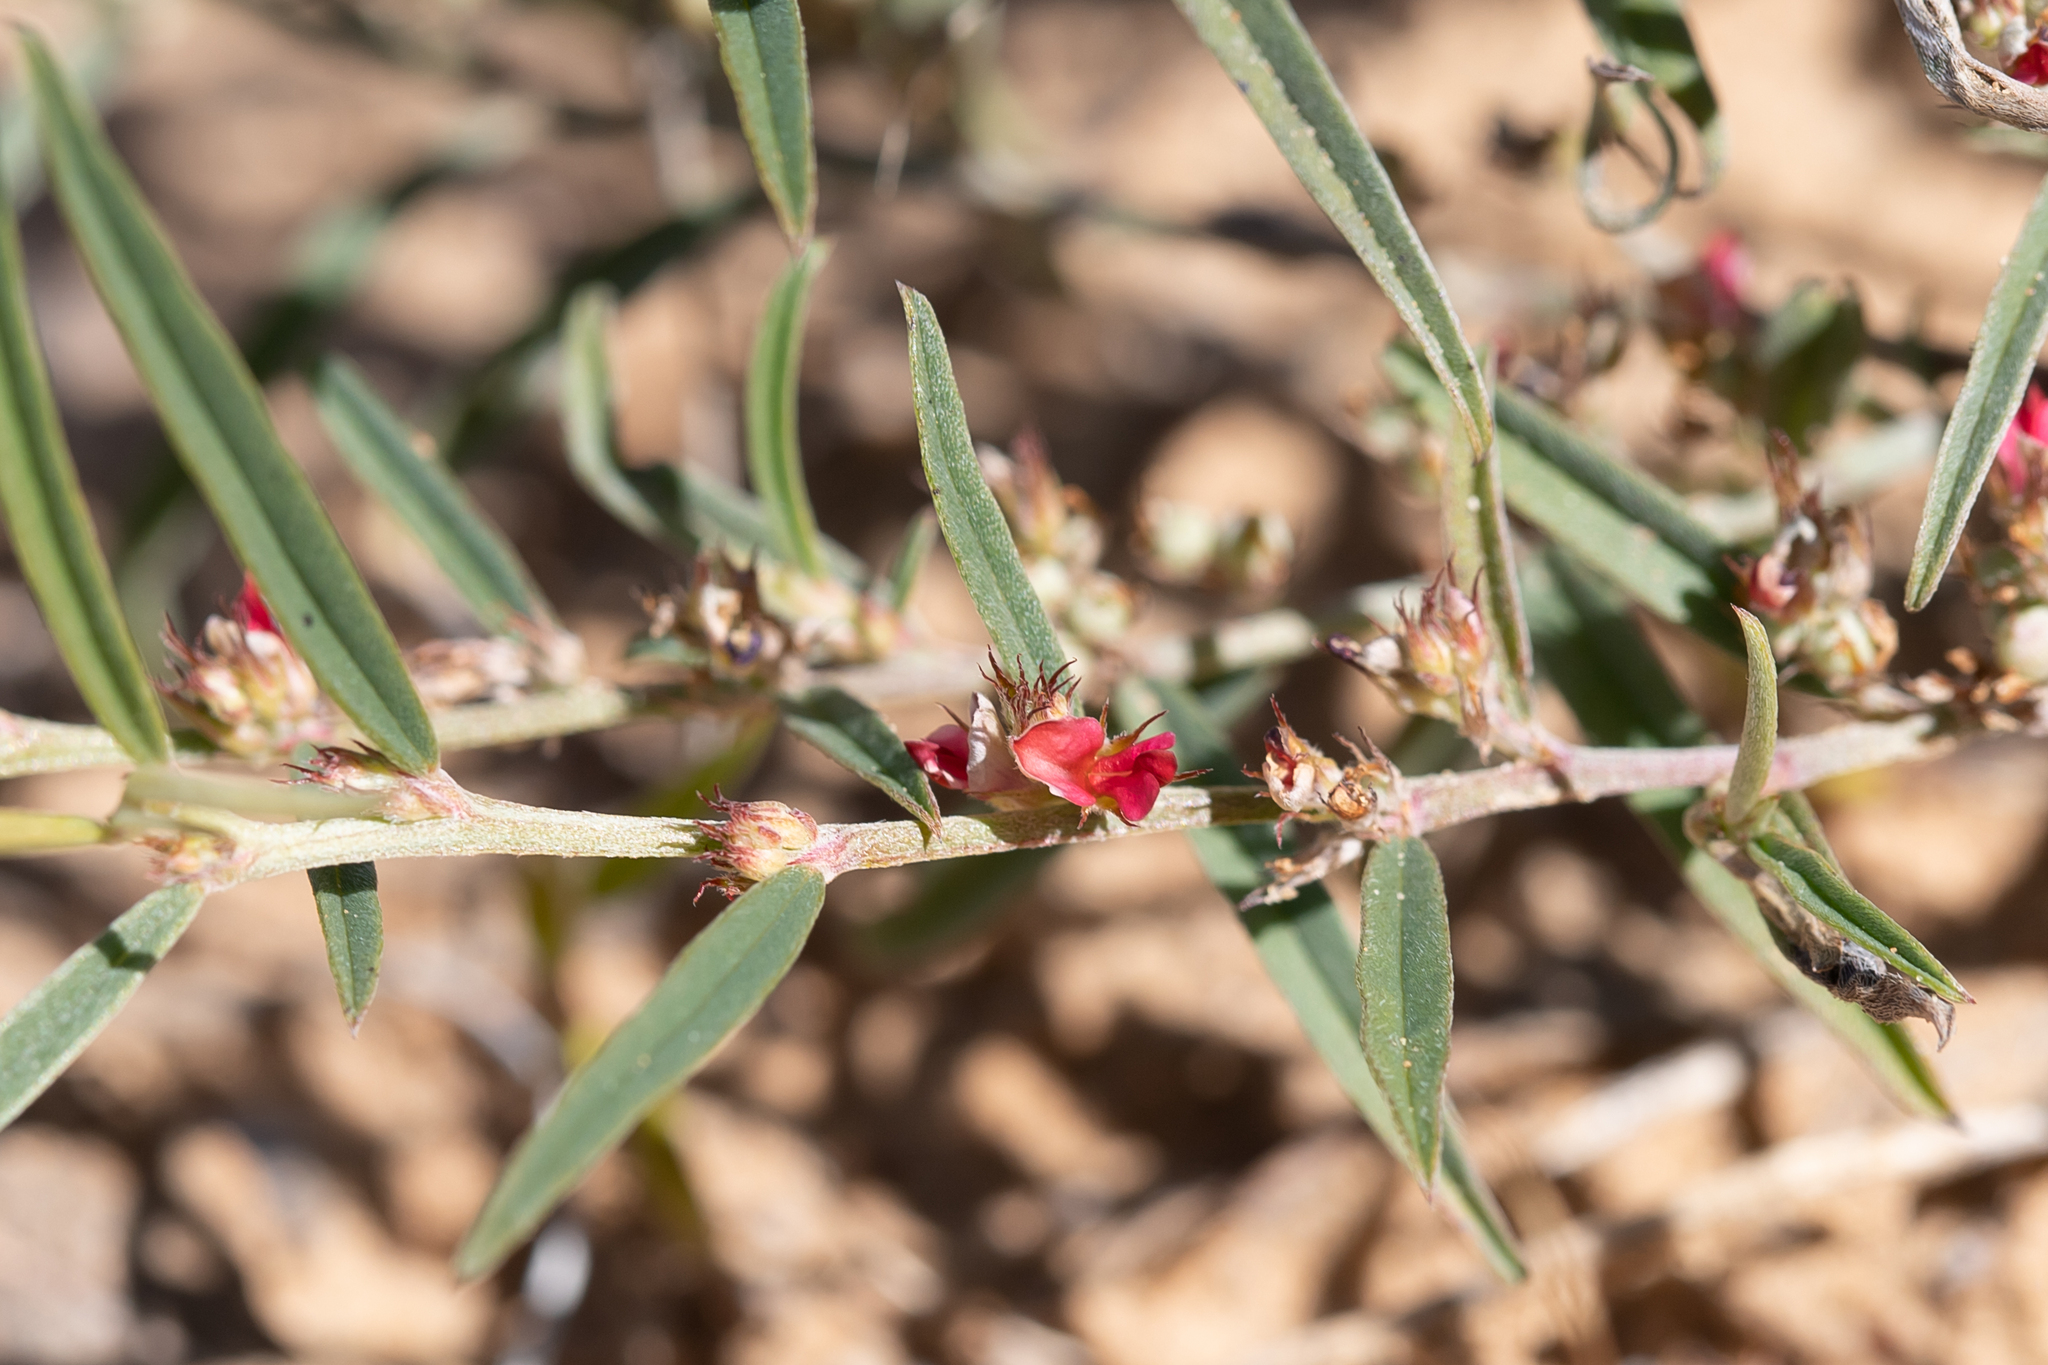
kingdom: Plantae
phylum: Tracheophyta
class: Magnoliopsida
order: Fabales
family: Fabaceae
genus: Indigofera
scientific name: Indigofera linifolia
